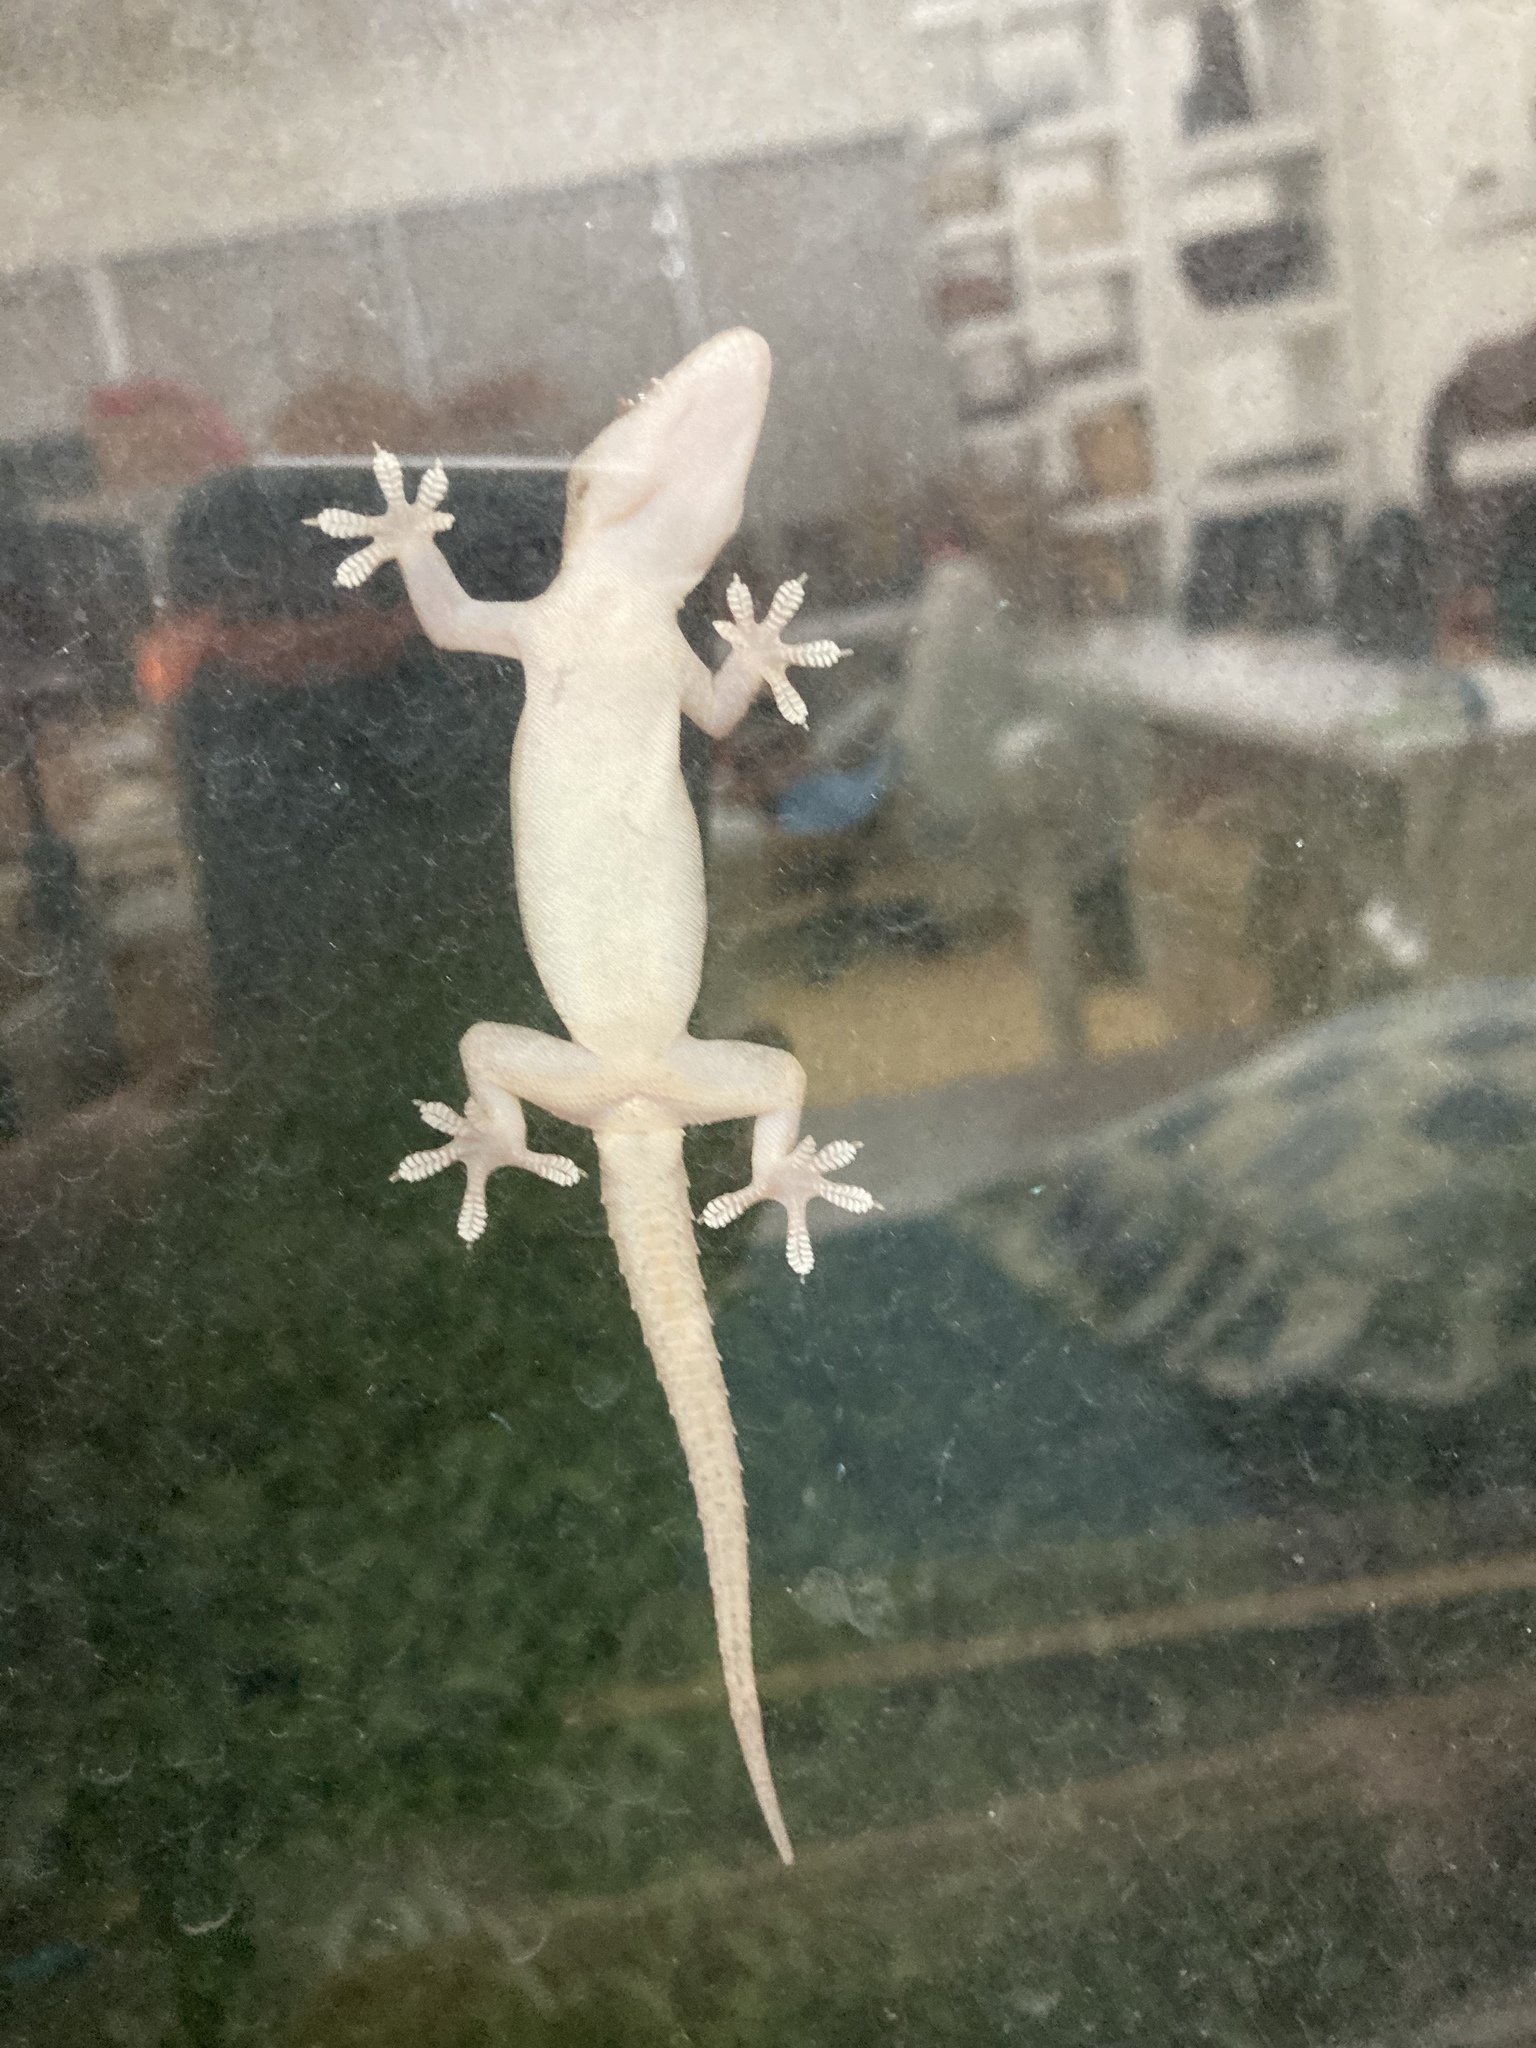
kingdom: Animalia
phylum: Chordata
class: Squamata
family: Gekkonidae
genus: Hemidactylus
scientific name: Hemidactylus frenatus
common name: Common house gecko
